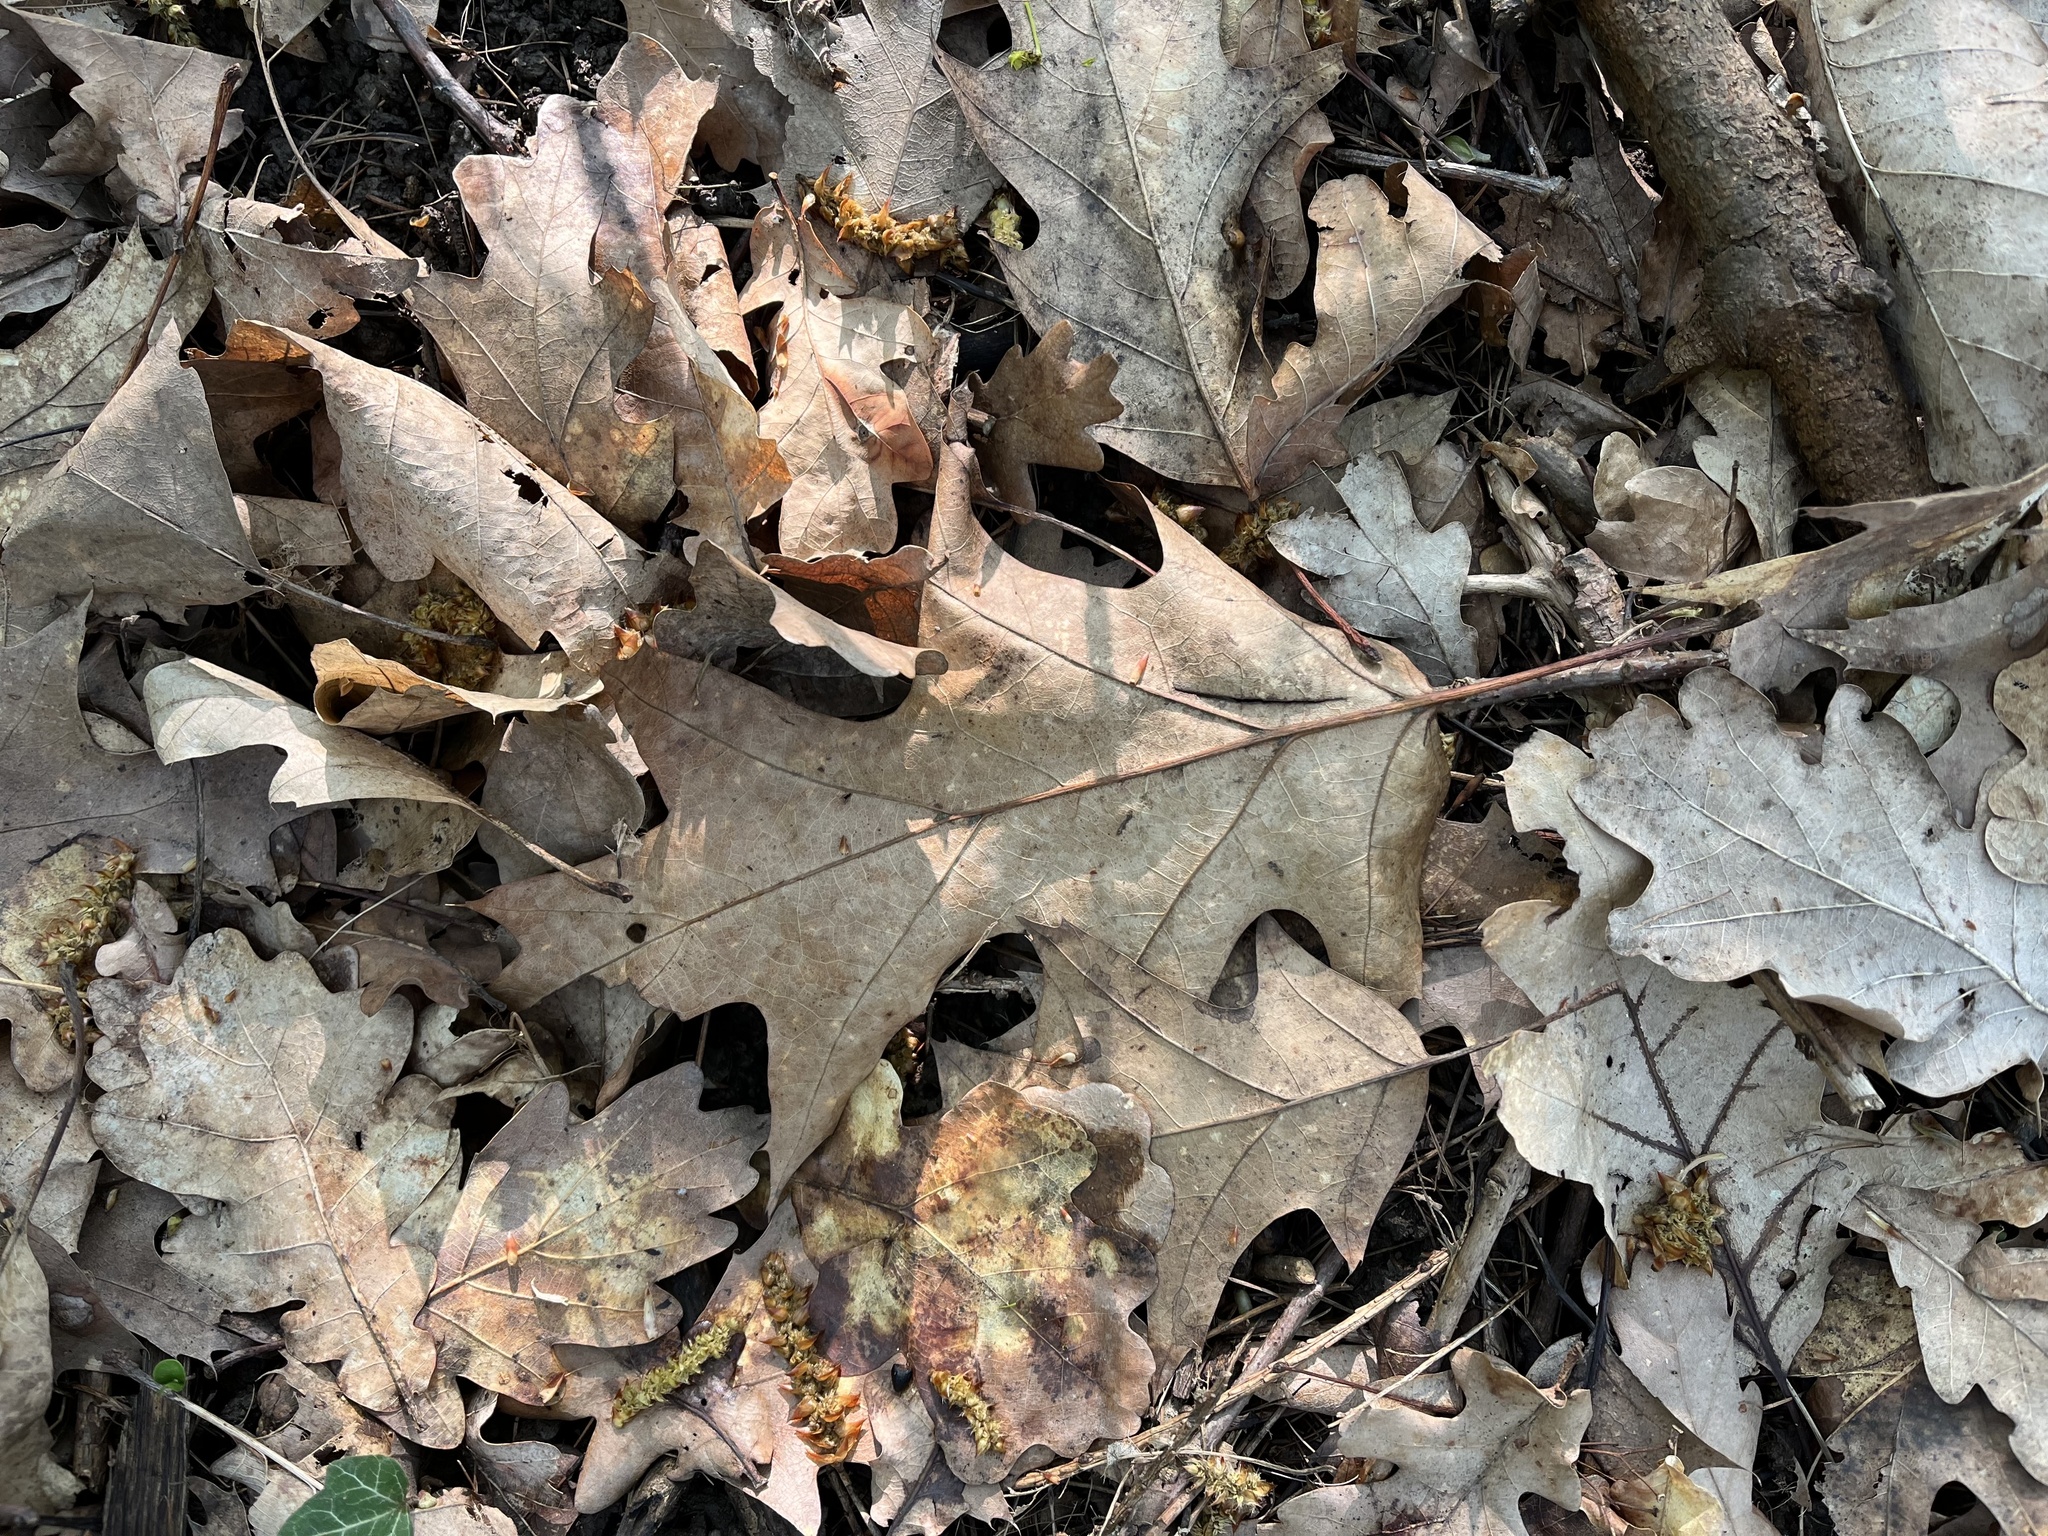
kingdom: Plantae
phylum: Tracheophyta
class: Magnoliopsida
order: Fagales
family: Fagaceae
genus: Quercus
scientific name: Quercus rubra
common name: Red oak
